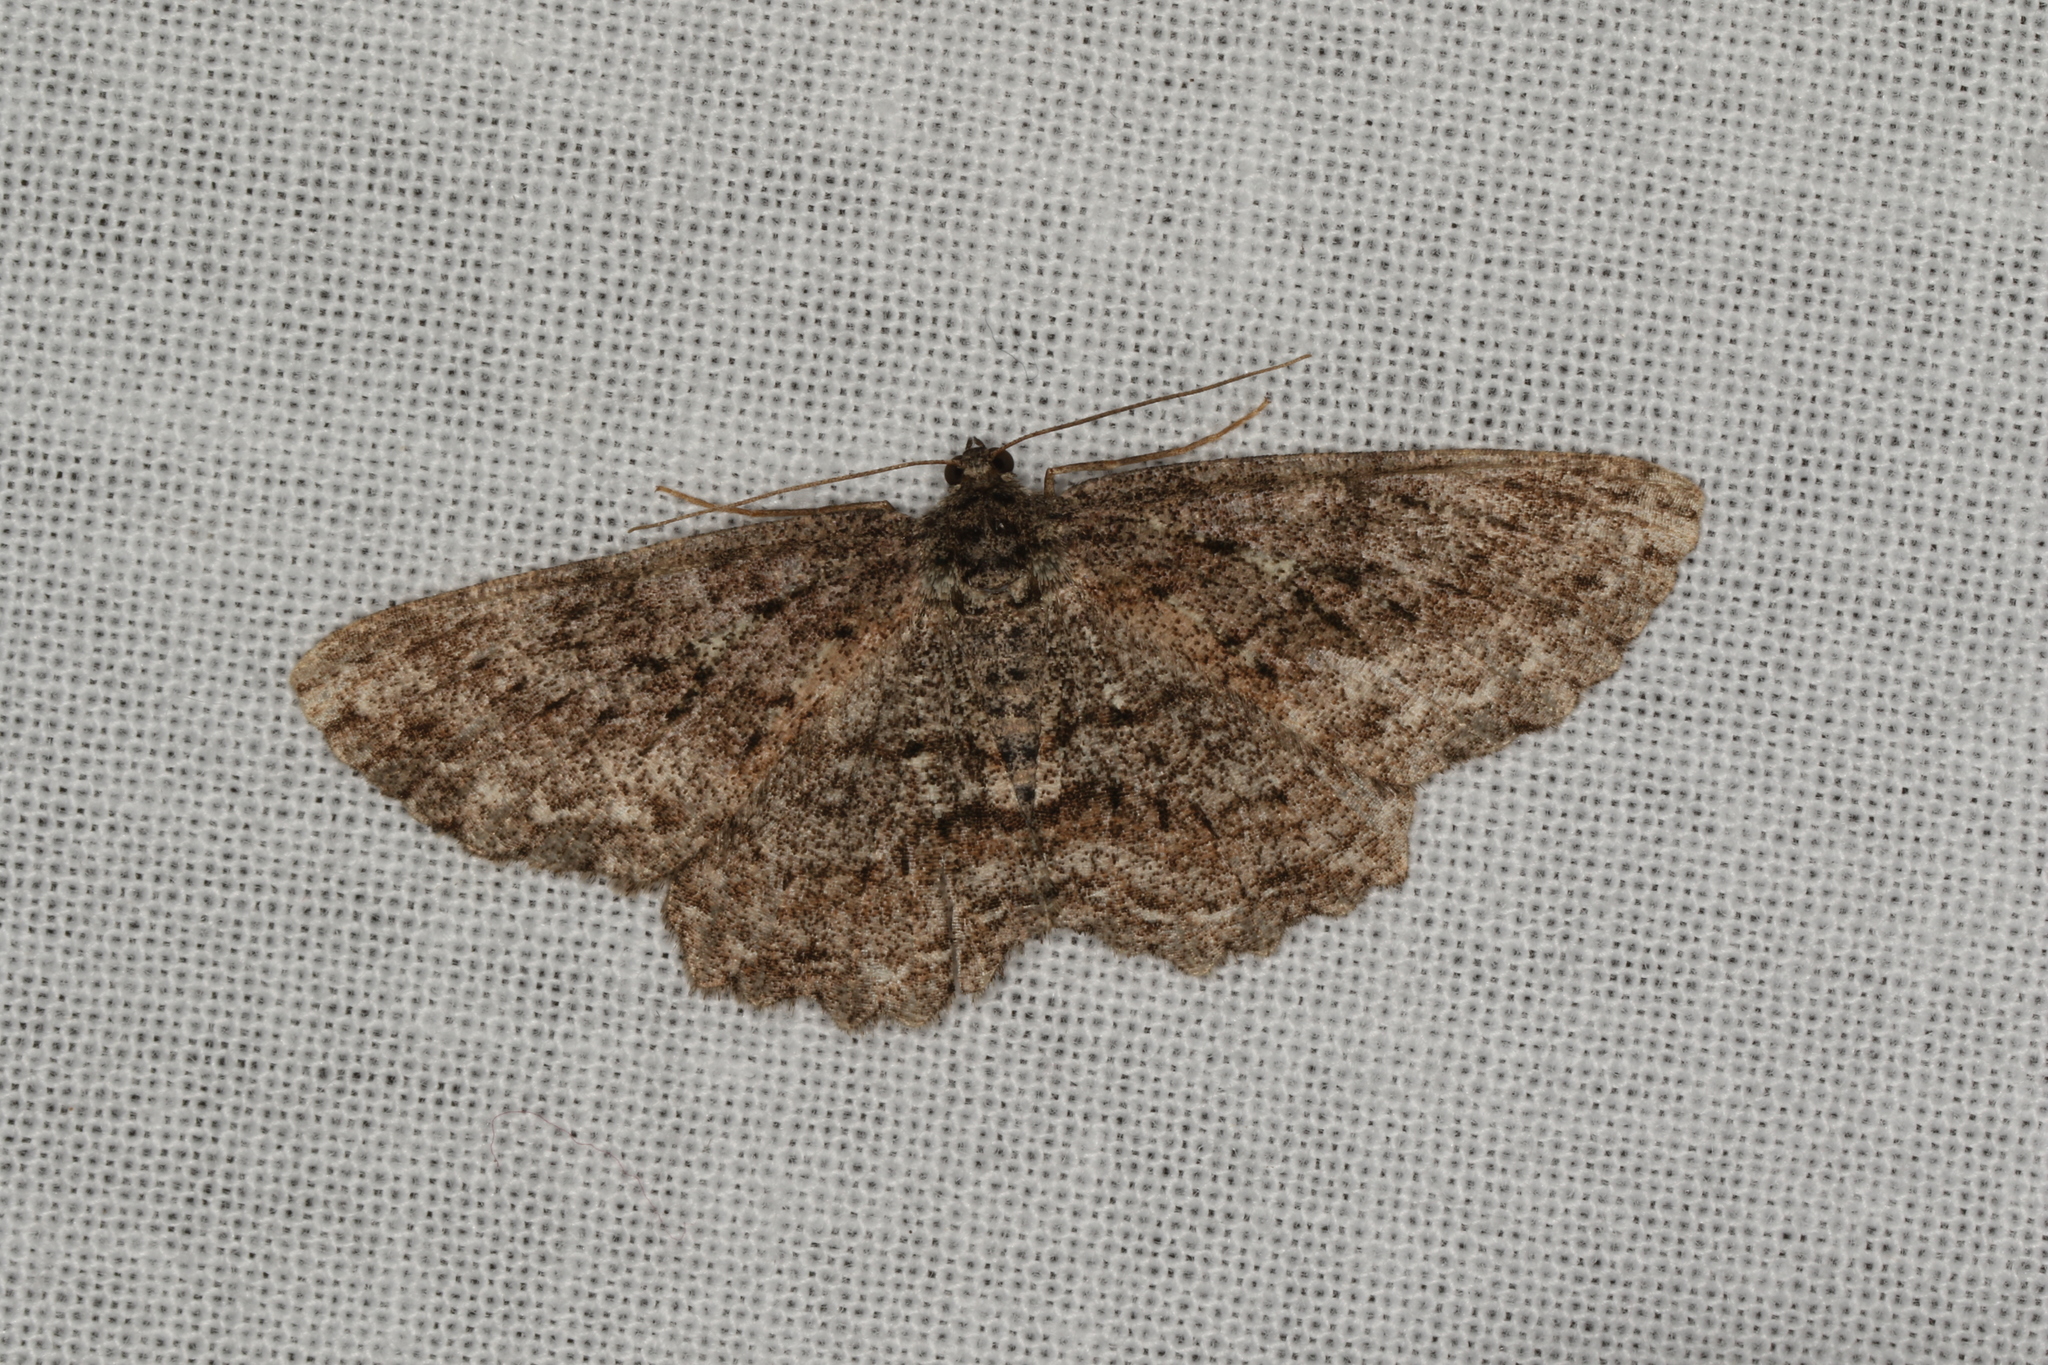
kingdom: Animalia
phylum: Arthropoda
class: Insecta
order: Lepidoptera
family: Geometridae
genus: Ectropis
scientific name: Ectropis fractaria
